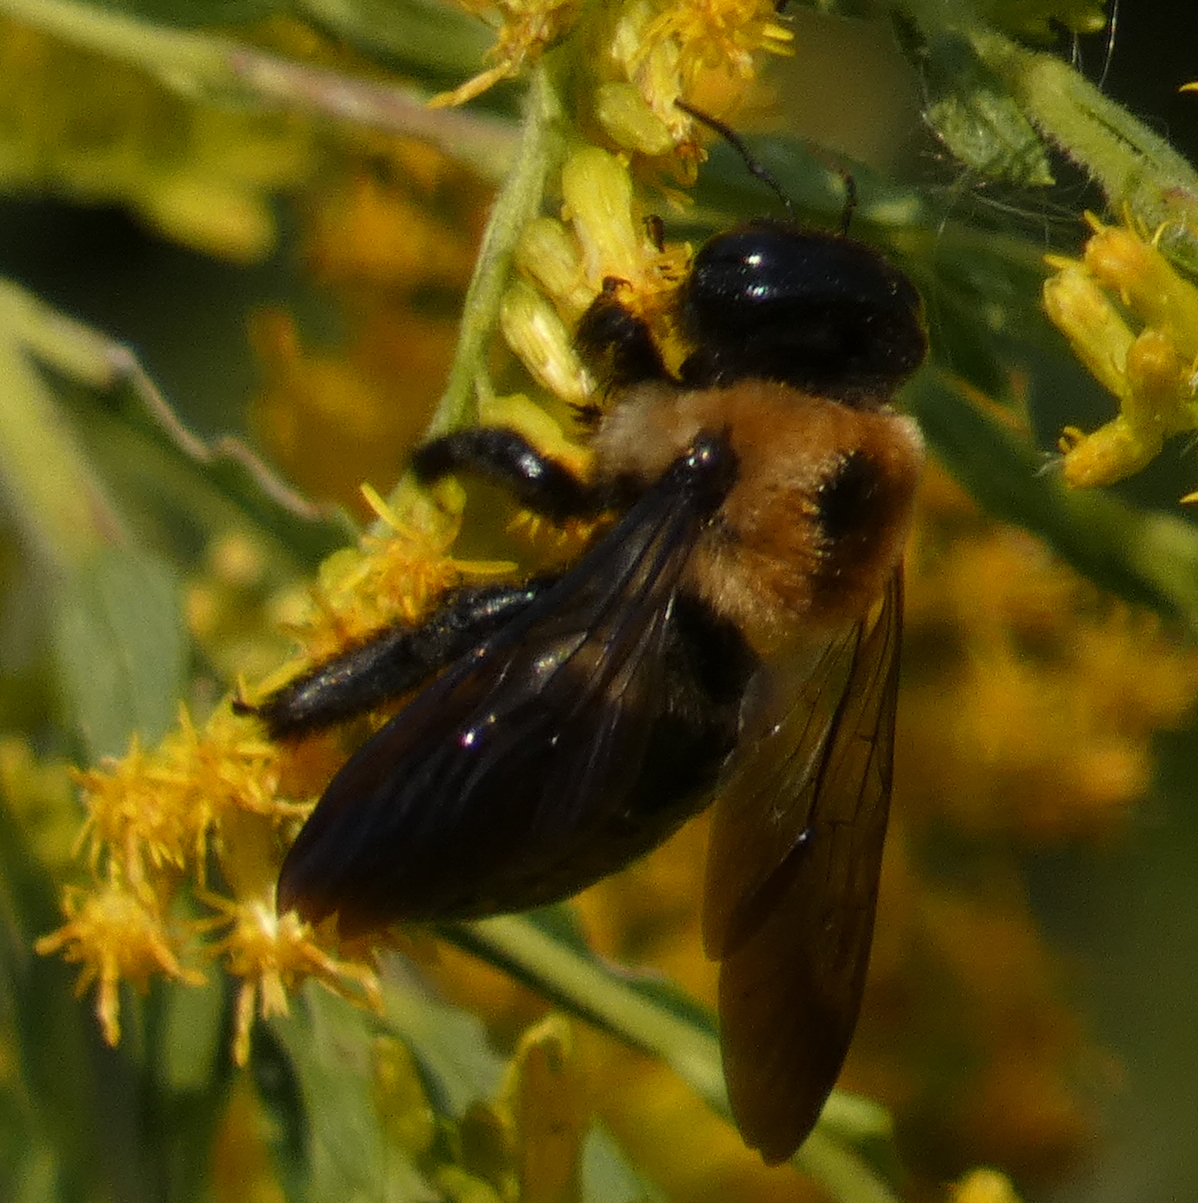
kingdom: Animalia
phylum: Arthropoda
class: Insecta
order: Hymenoptera
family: Apidae
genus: Xylocopa
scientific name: Xylocopa virginica
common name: Carpenter bee
